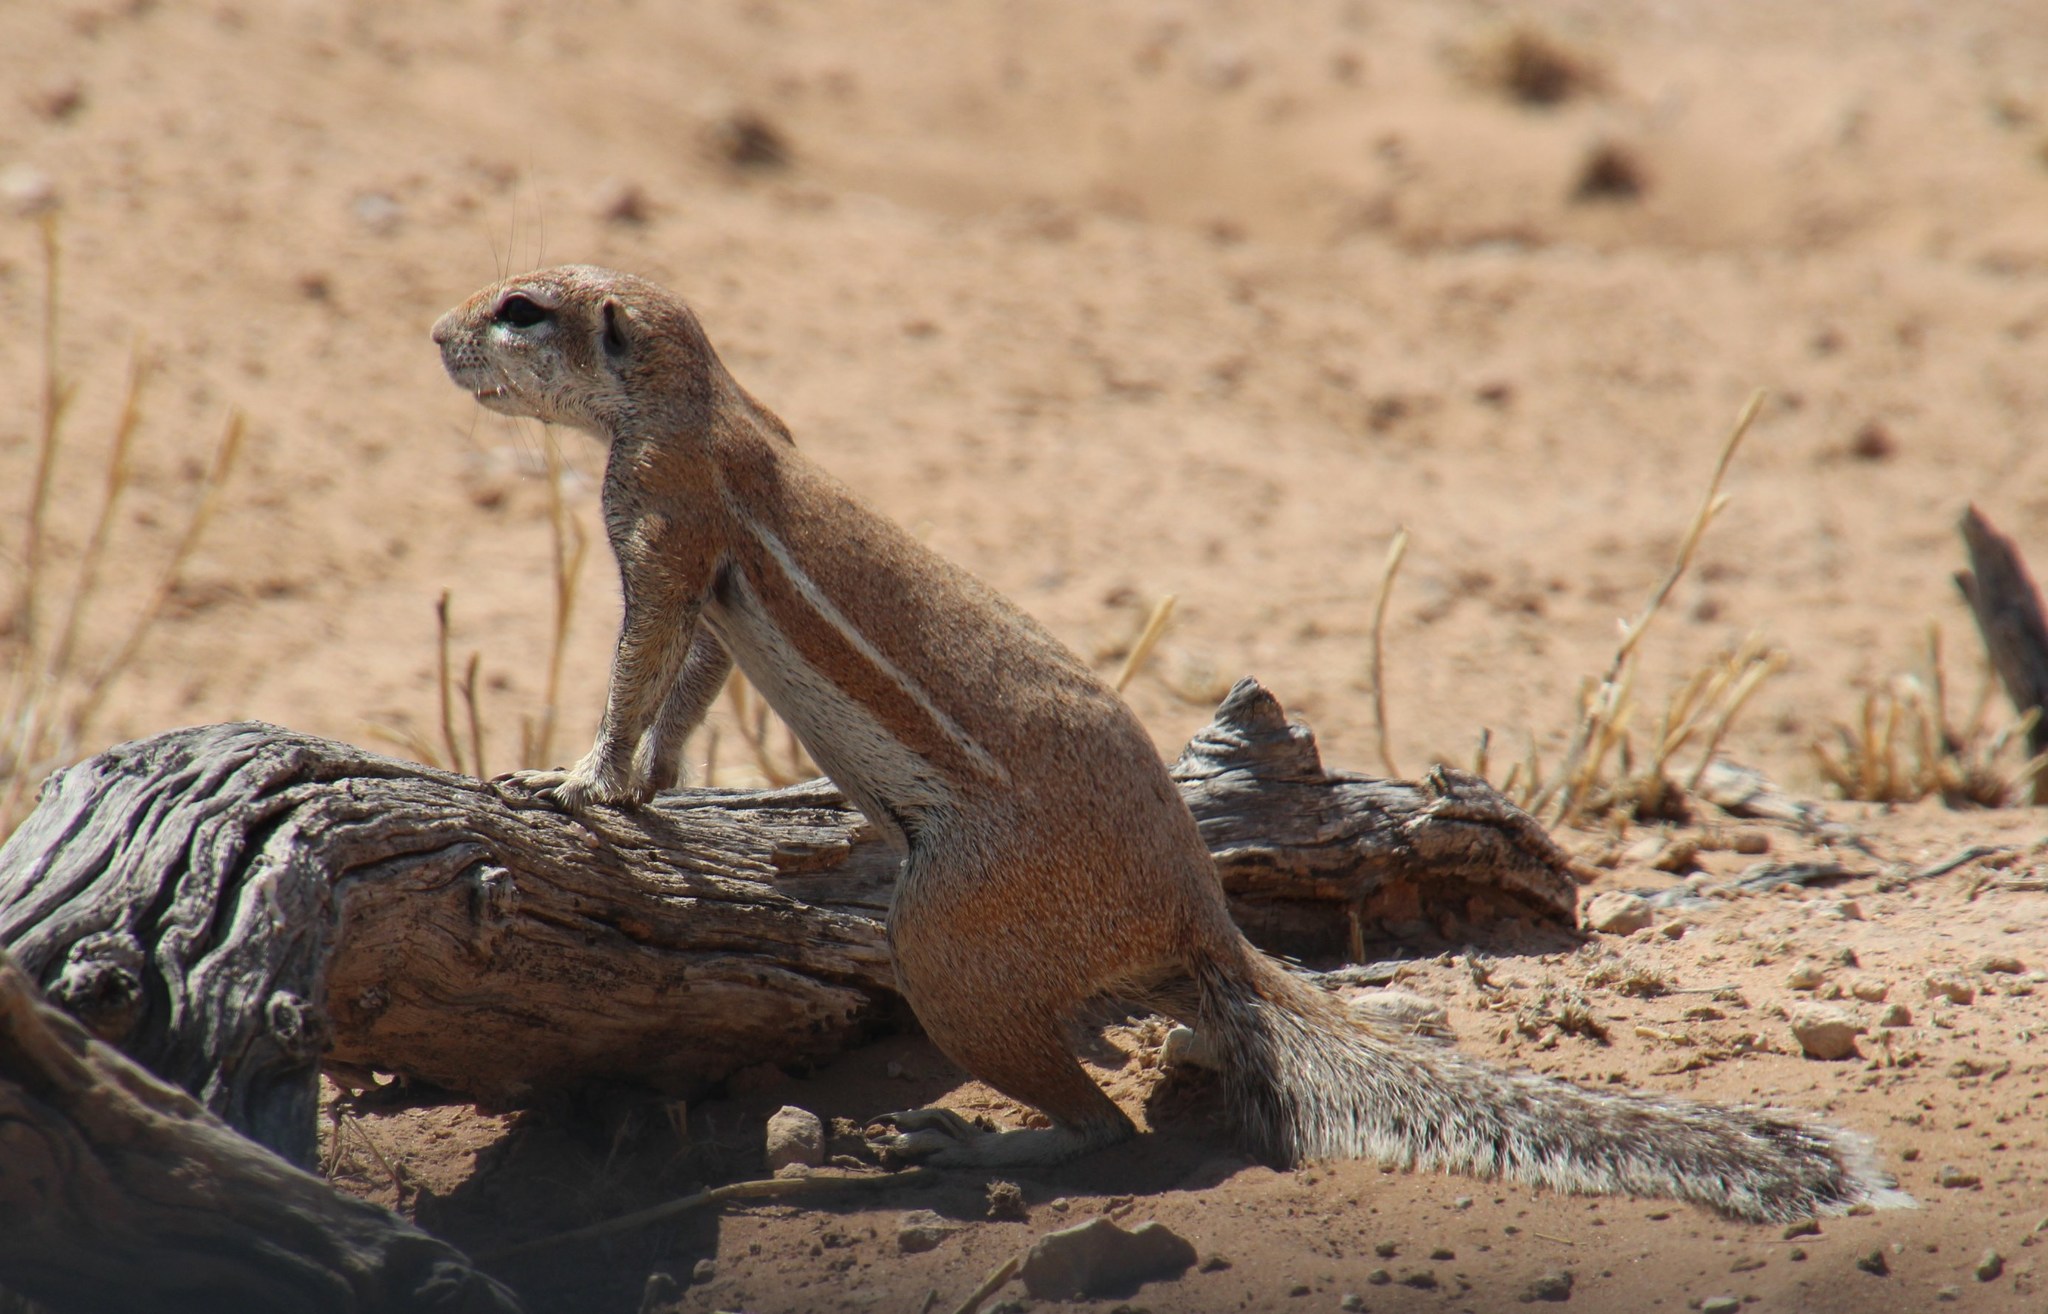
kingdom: Animalia
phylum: Chordata
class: Mammalia
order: Rodentia
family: Sciuridae
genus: Xerus
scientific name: Xerus inauris
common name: South african ground squirrel
